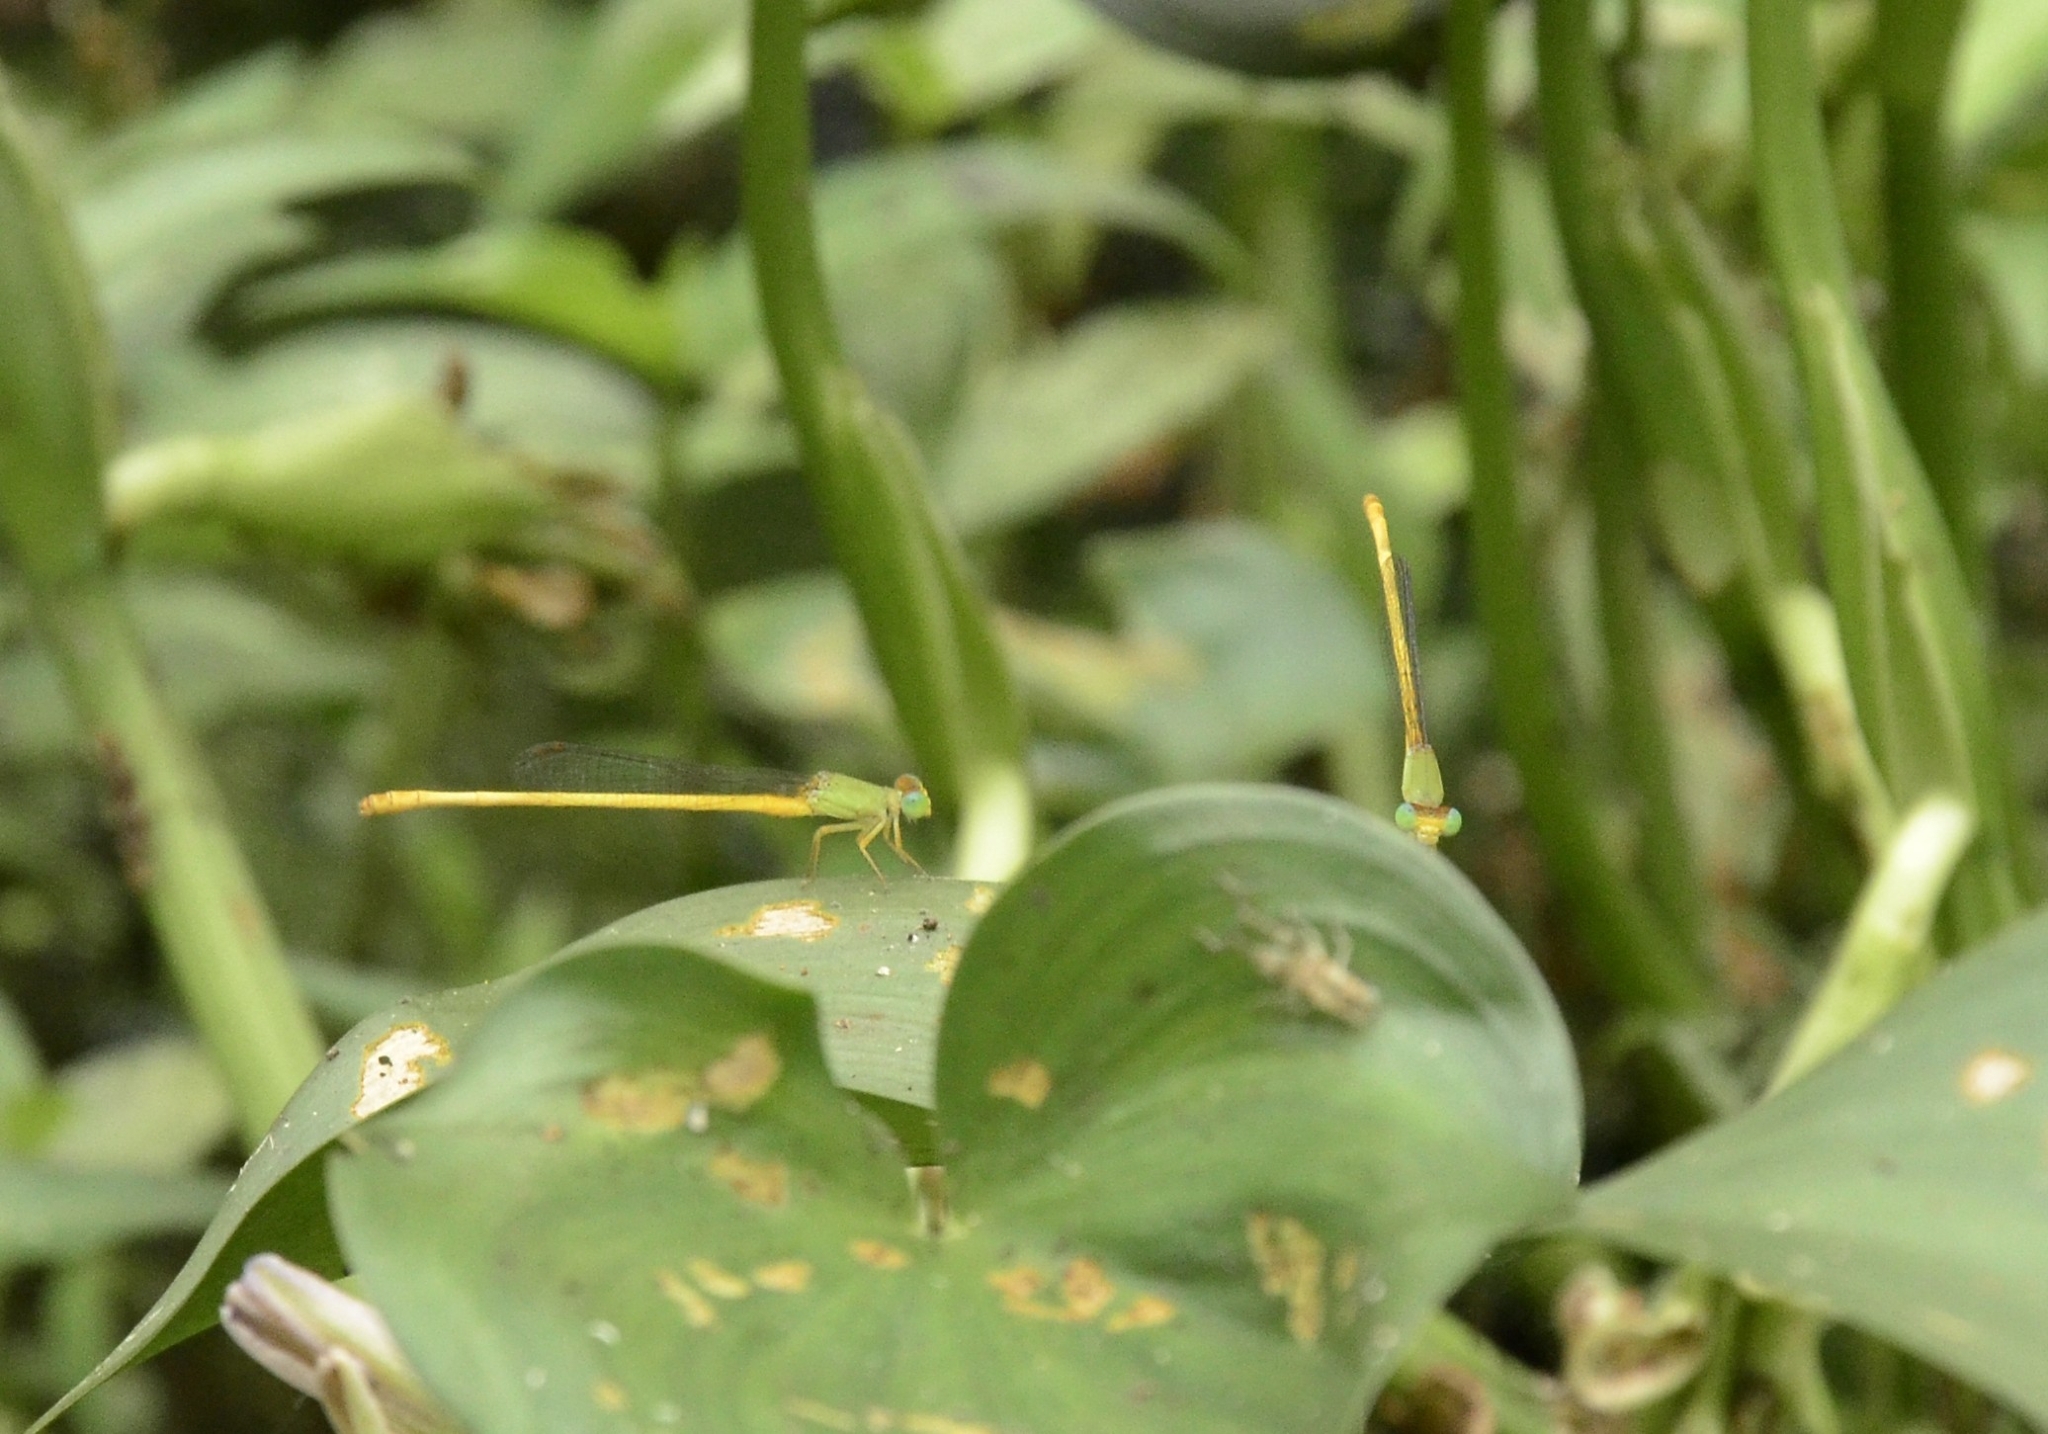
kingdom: Animalia
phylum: Arthropoda
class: Insecta
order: Odonata
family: Coenagrionidae
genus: Ceriagrion
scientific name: Ceriagrion coromandelianum
